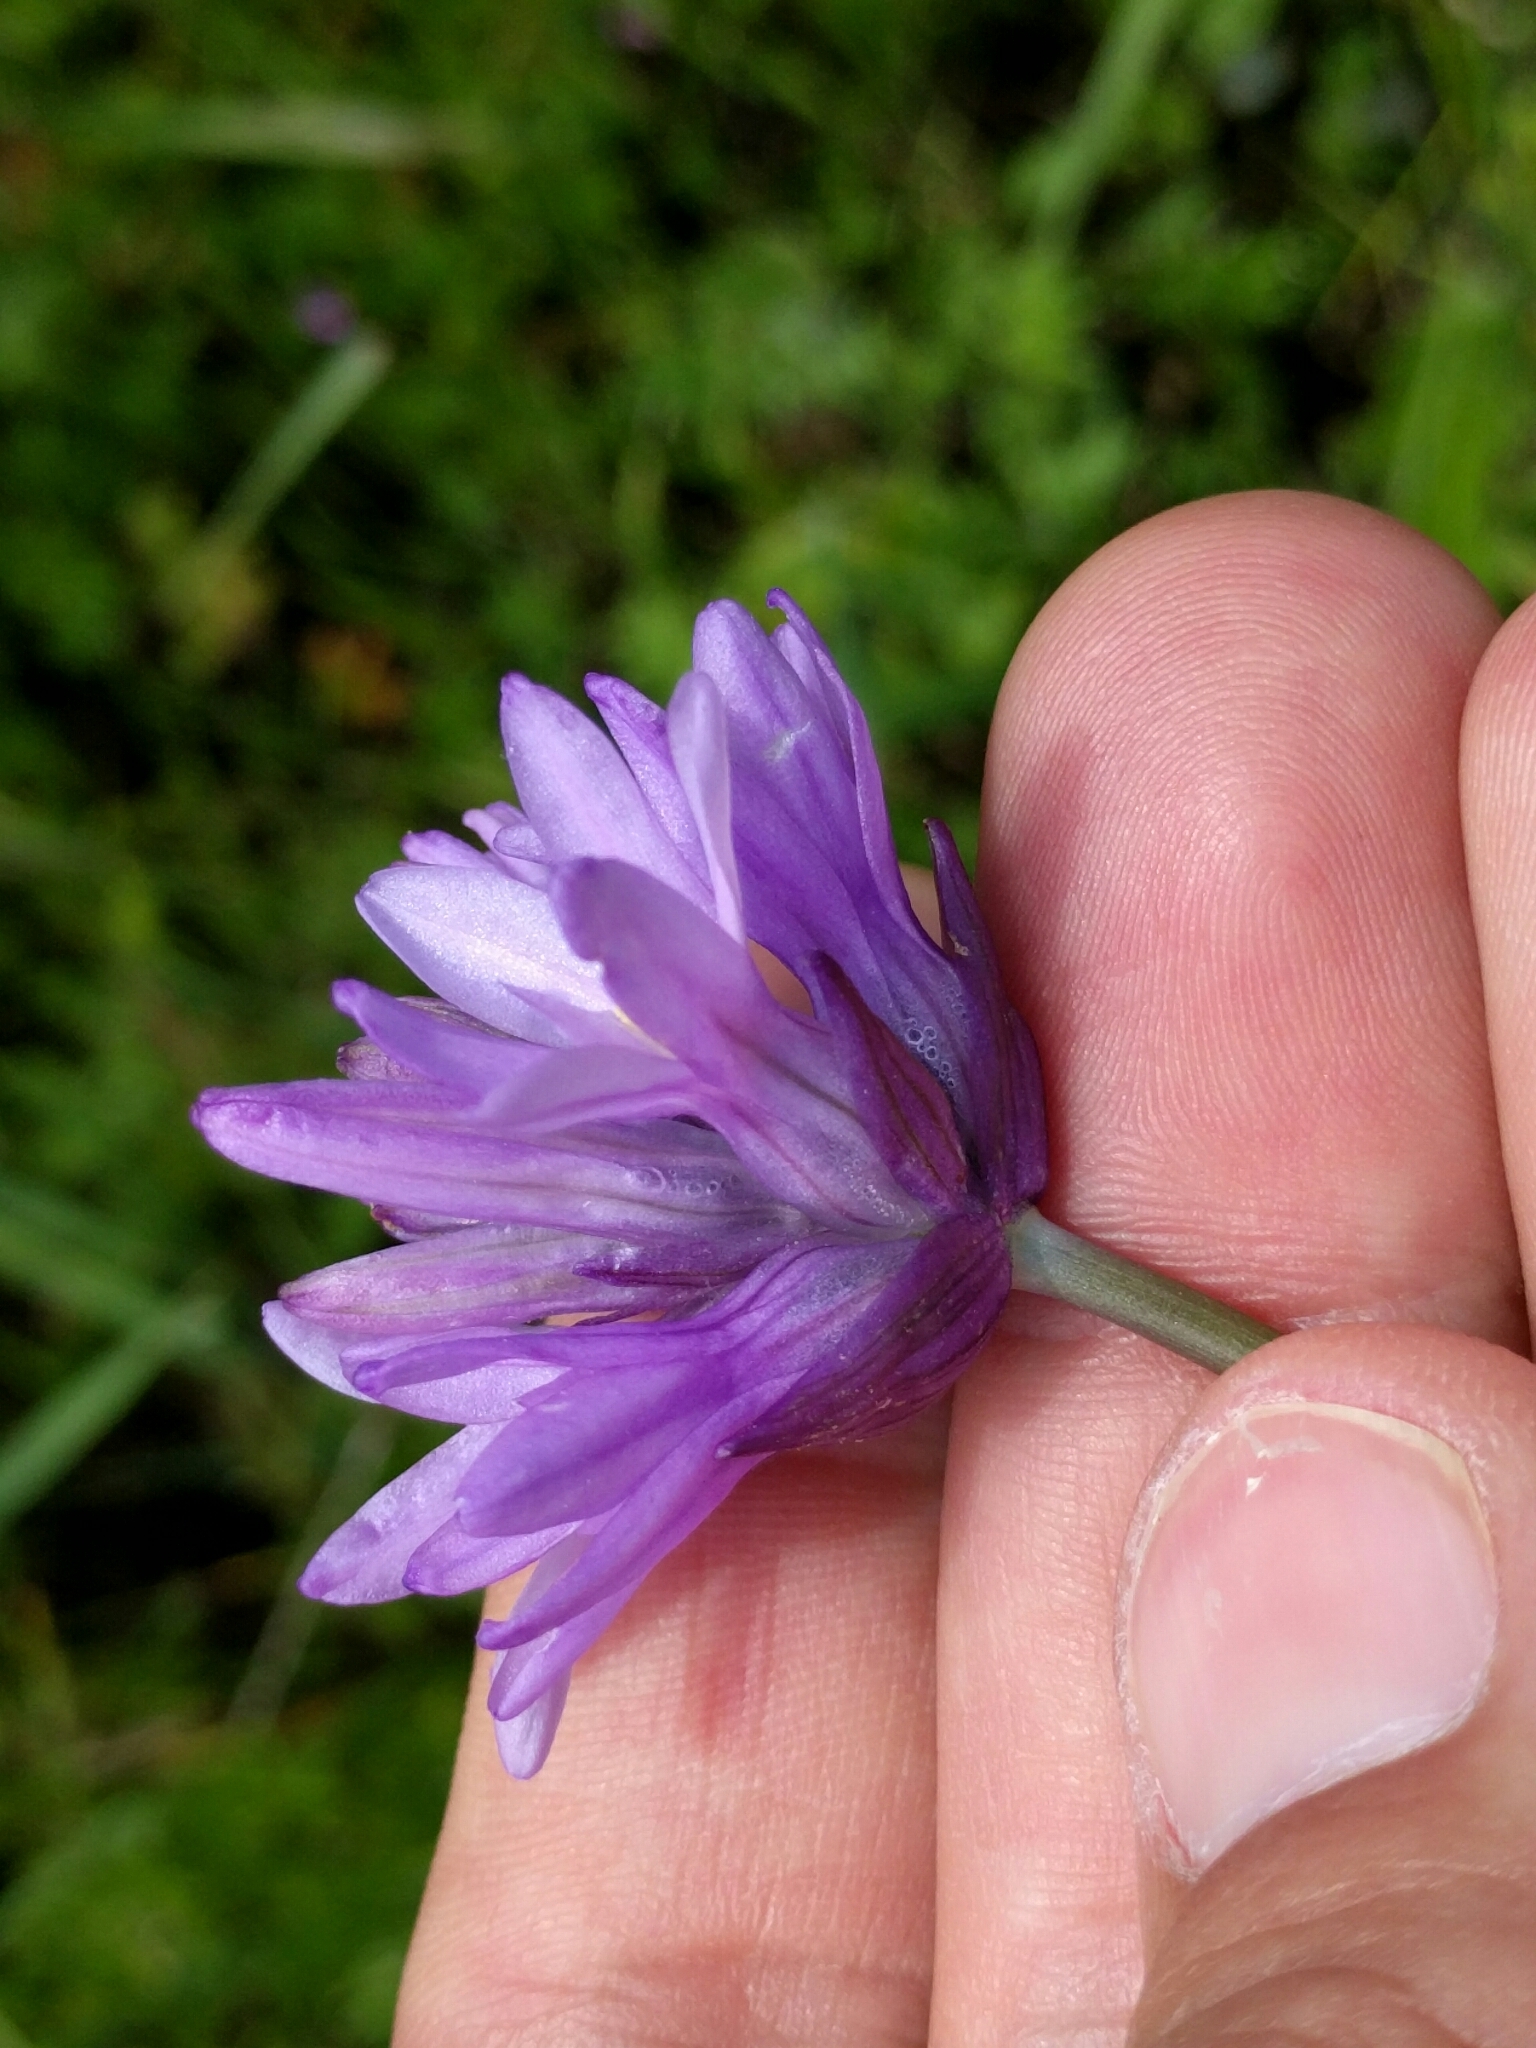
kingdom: Plantae
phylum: Tracheophyta
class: Liliopsida
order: Asparagales
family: Asparagaceae
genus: Dichelostemma
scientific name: Dichelostemma congestum
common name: Fork-tooth ookow
